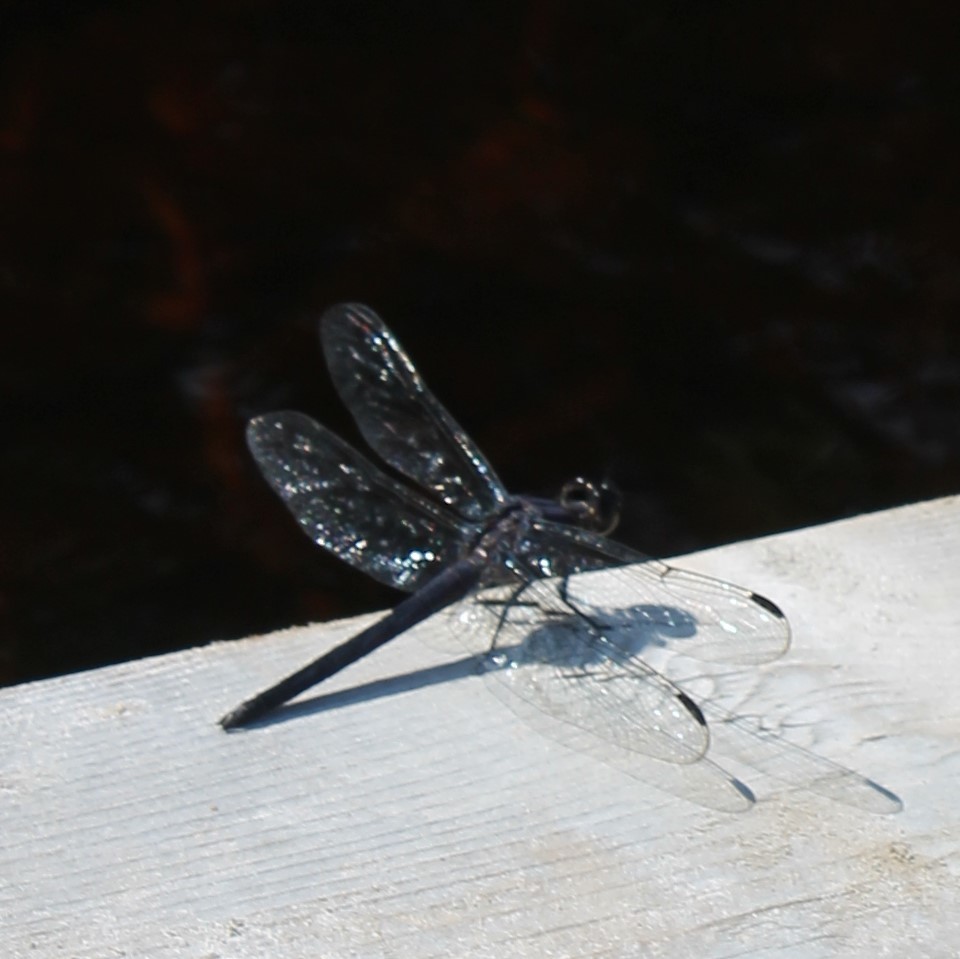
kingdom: Animalia
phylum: Arthropoda
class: Insecta
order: Odonata
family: Libellulidae
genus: Sympetrum
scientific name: Sympetrum danae
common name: Black darter
